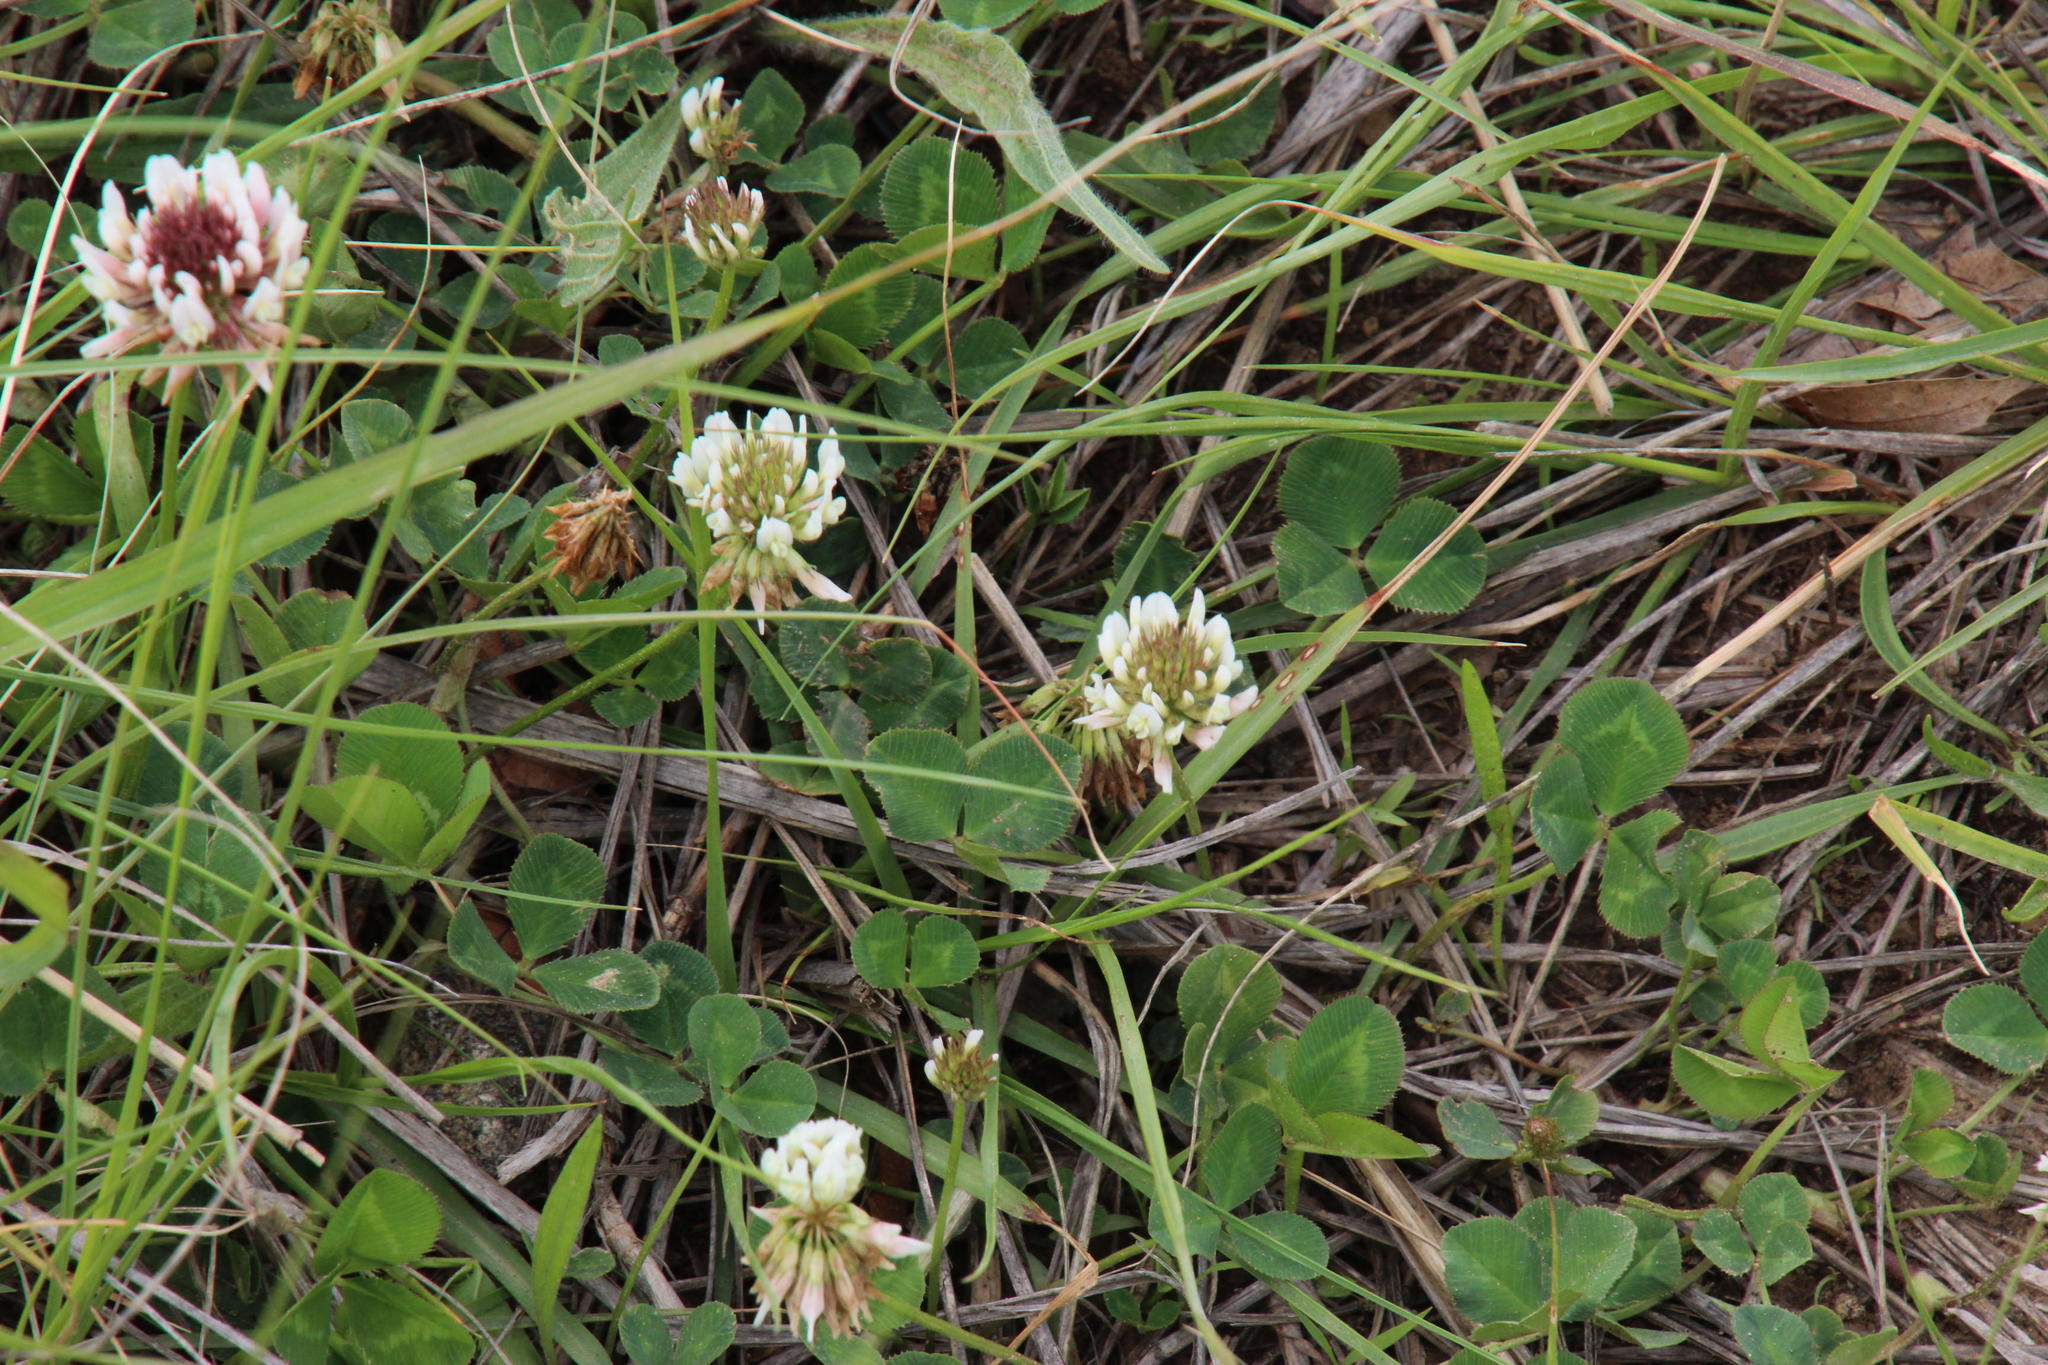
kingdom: Plantae
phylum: Tracheophyta
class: Magnoliopsida
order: Fabales
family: Fabaceae
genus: Trifolium
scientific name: Trifolium repens
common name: White clover
